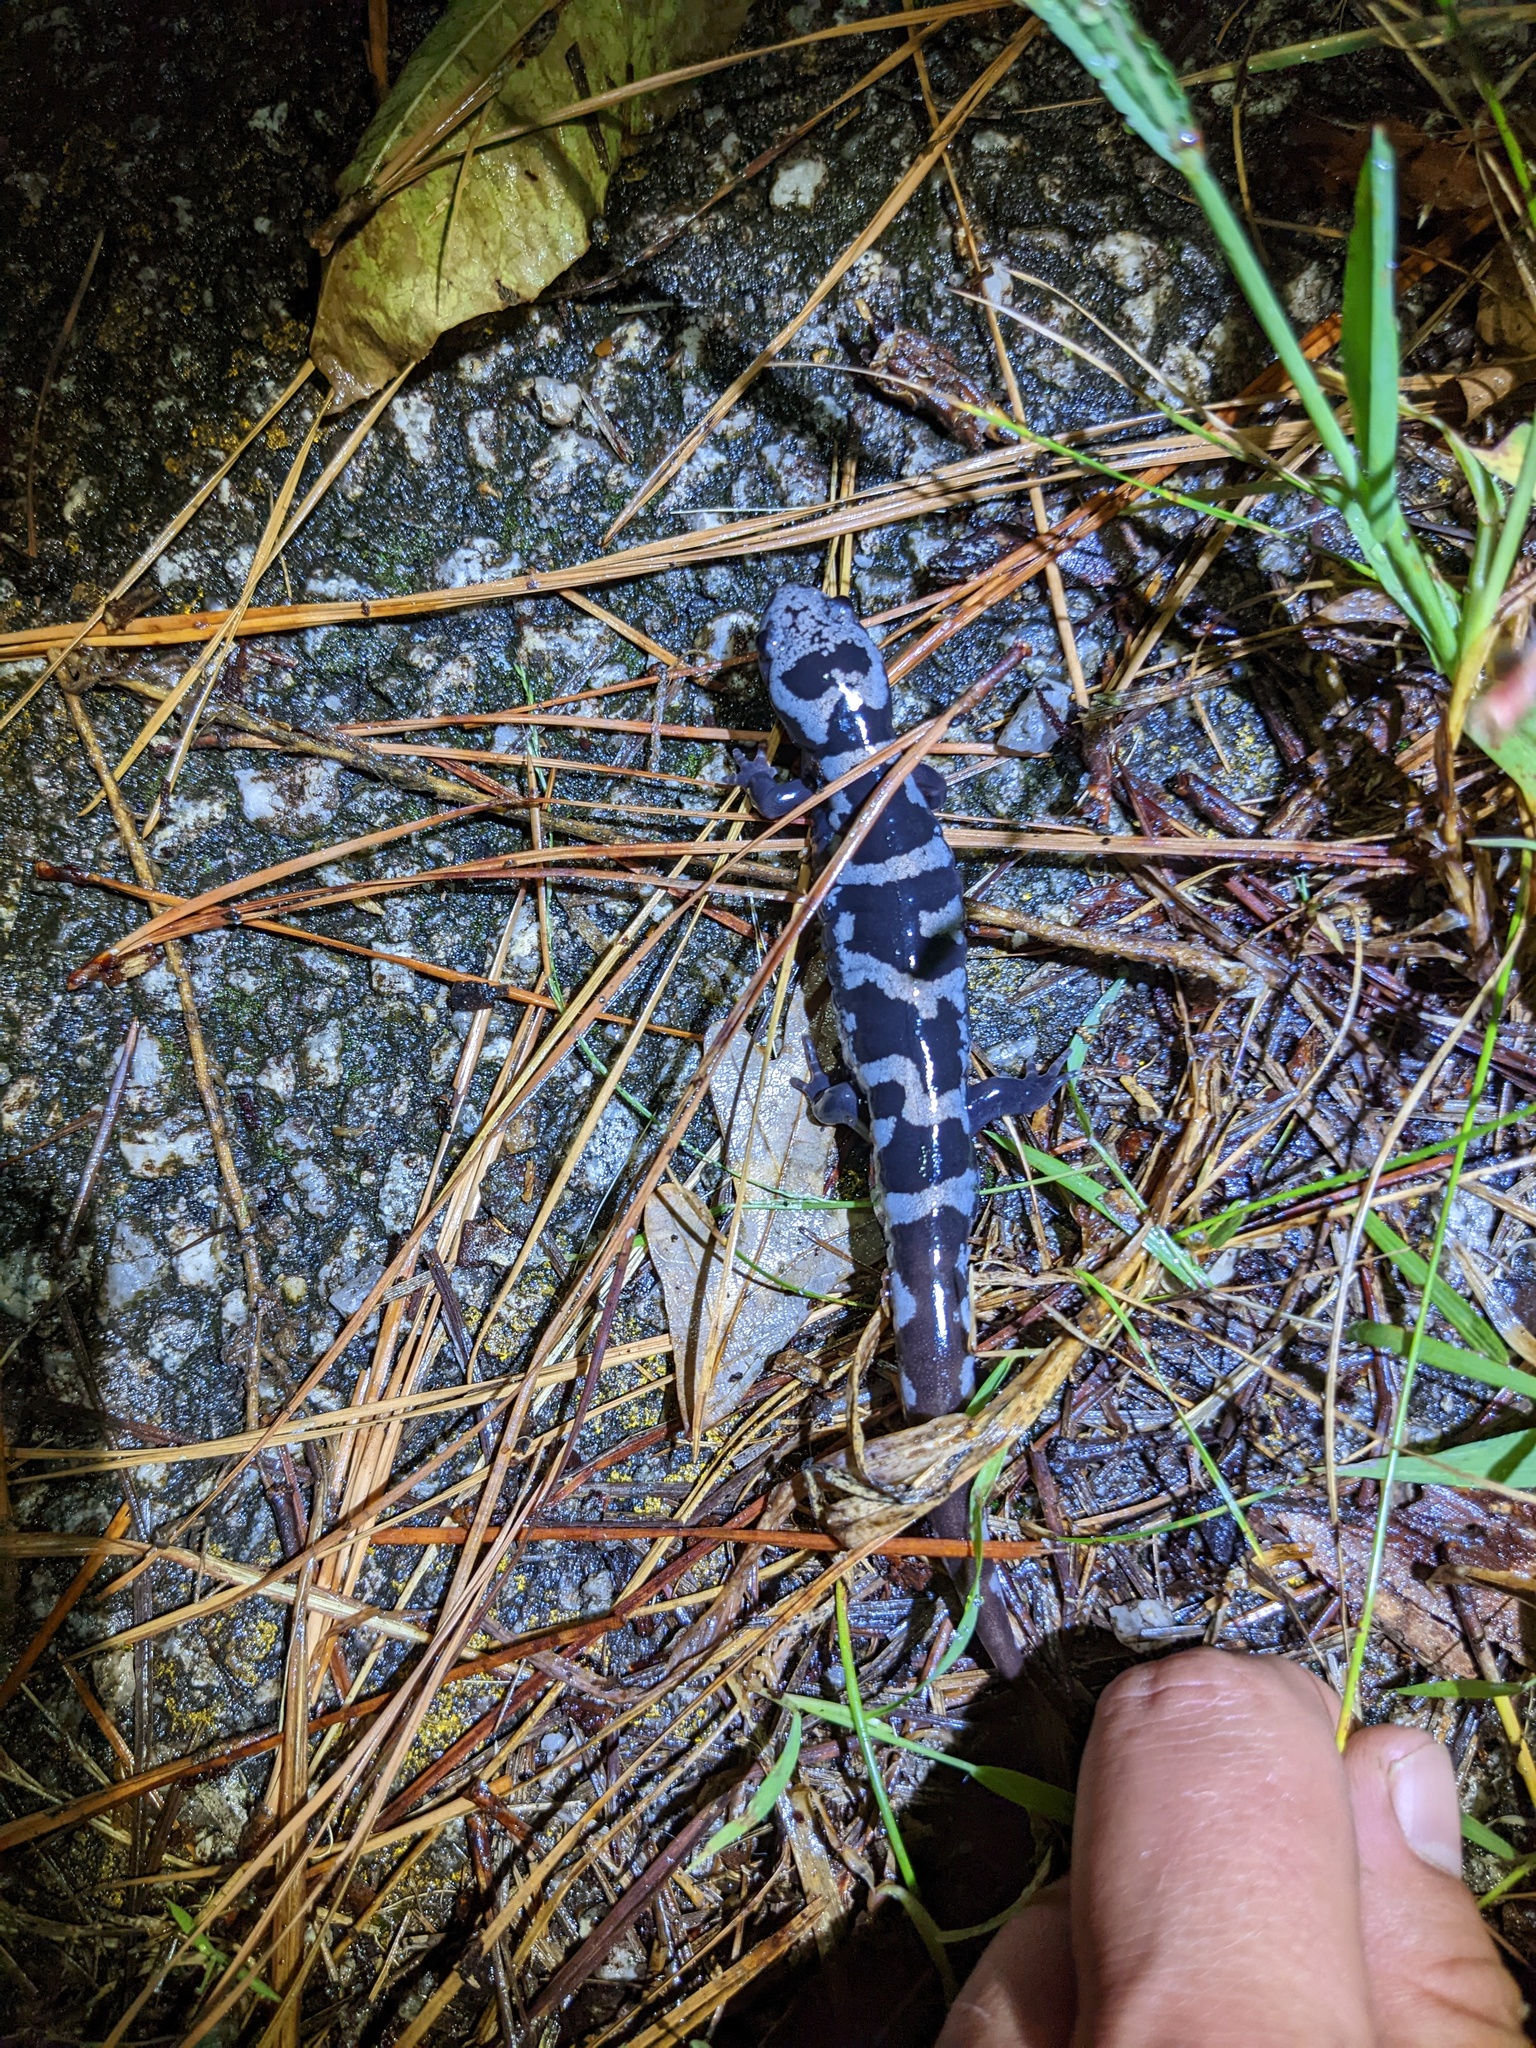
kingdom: Animalia
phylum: Chordata
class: Amphibia
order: Caudata
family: Ambystomatidae
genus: Ambystoma
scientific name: Ambystoma opacum
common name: Marbled salamander
